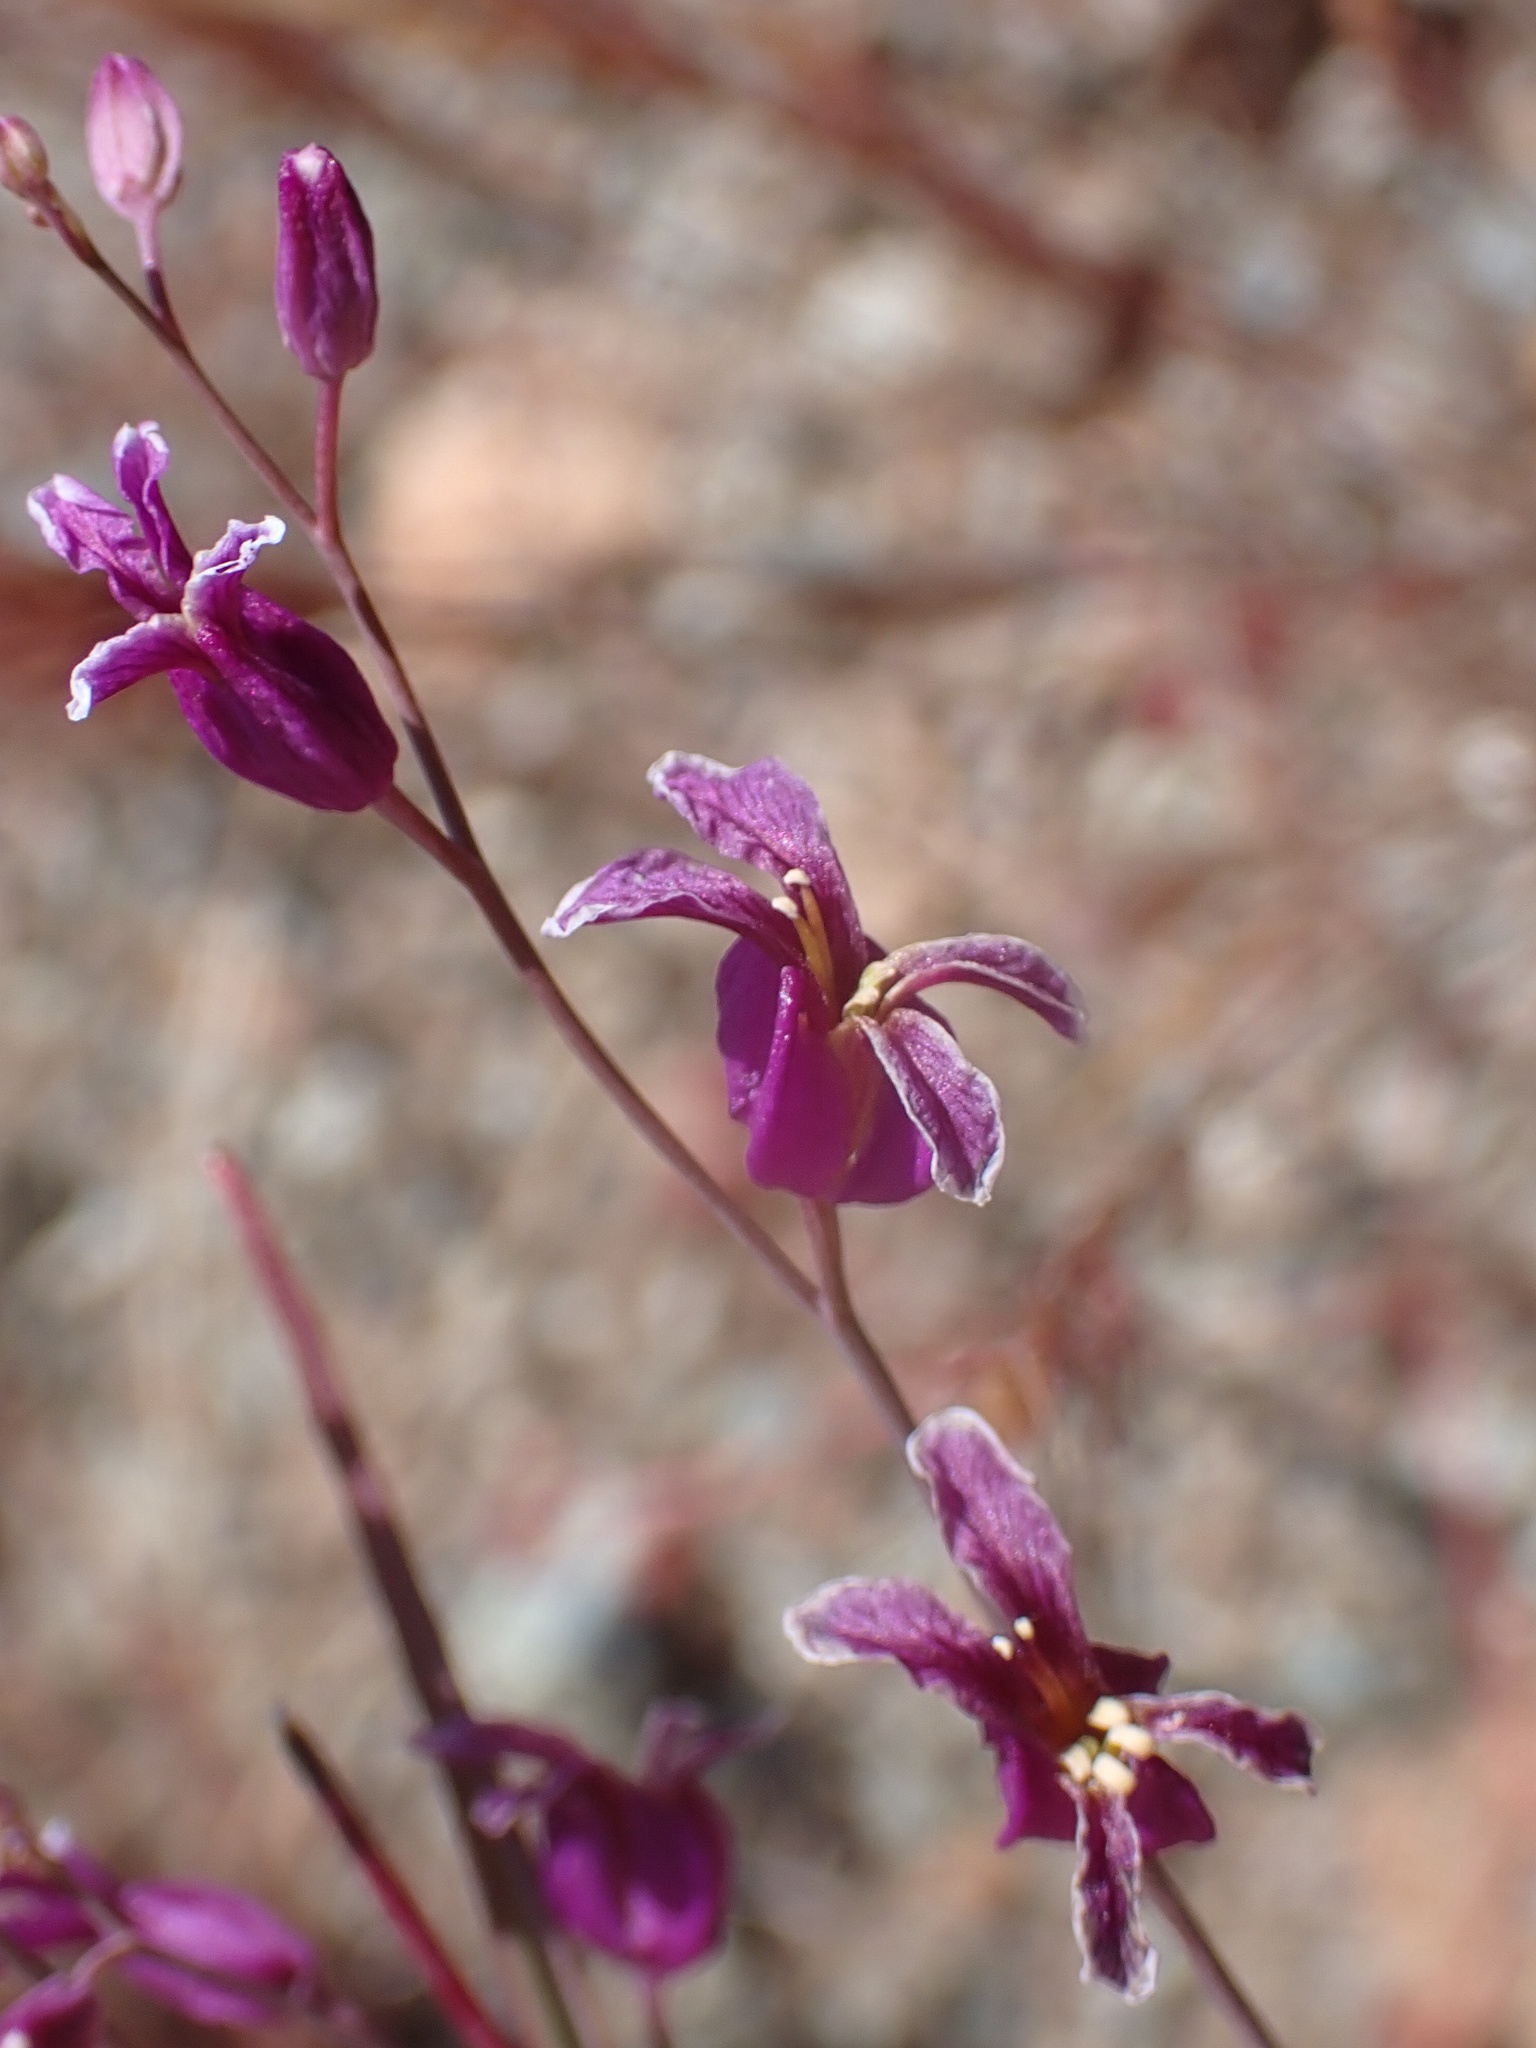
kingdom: Plantae
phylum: Tracheophyta
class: Magnoliopsida
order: Brassicales
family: Brassicaceae
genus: Streptanthus
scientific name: Streptanthus glandulosus
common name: Jewel-flower
